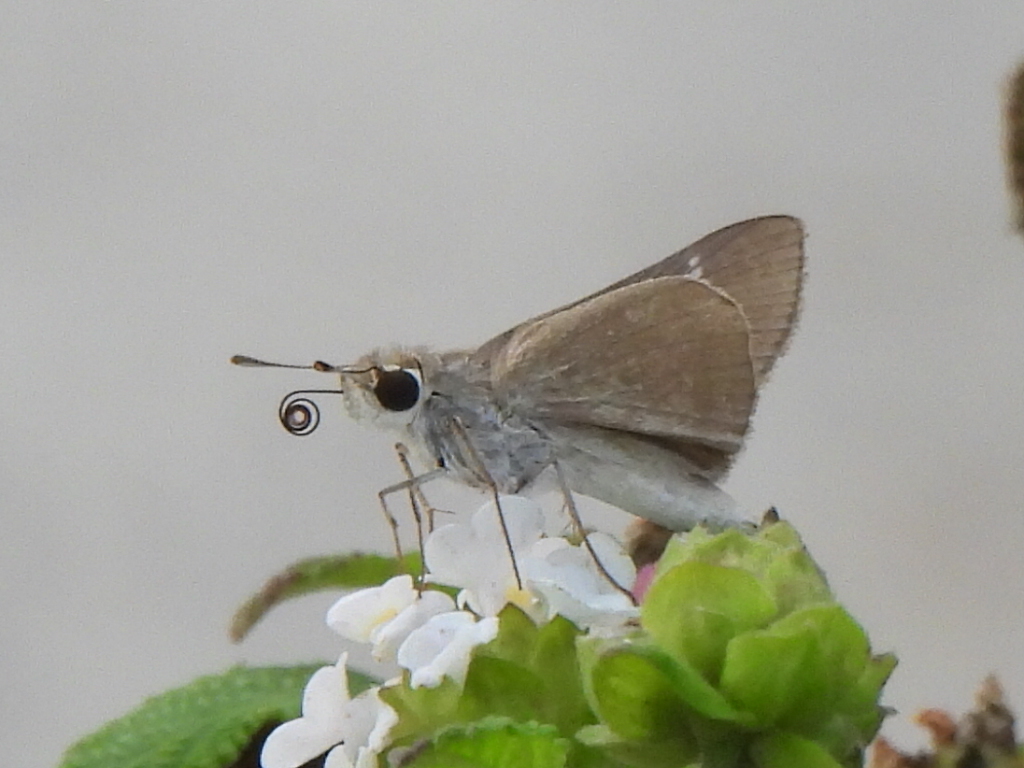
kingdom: Animalia
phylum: Arthropoda
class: Insecta
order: Lepidoptera
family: Hesperiidae
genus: Lerodea
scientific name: Lerodea eufala
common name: Eufala skipper
